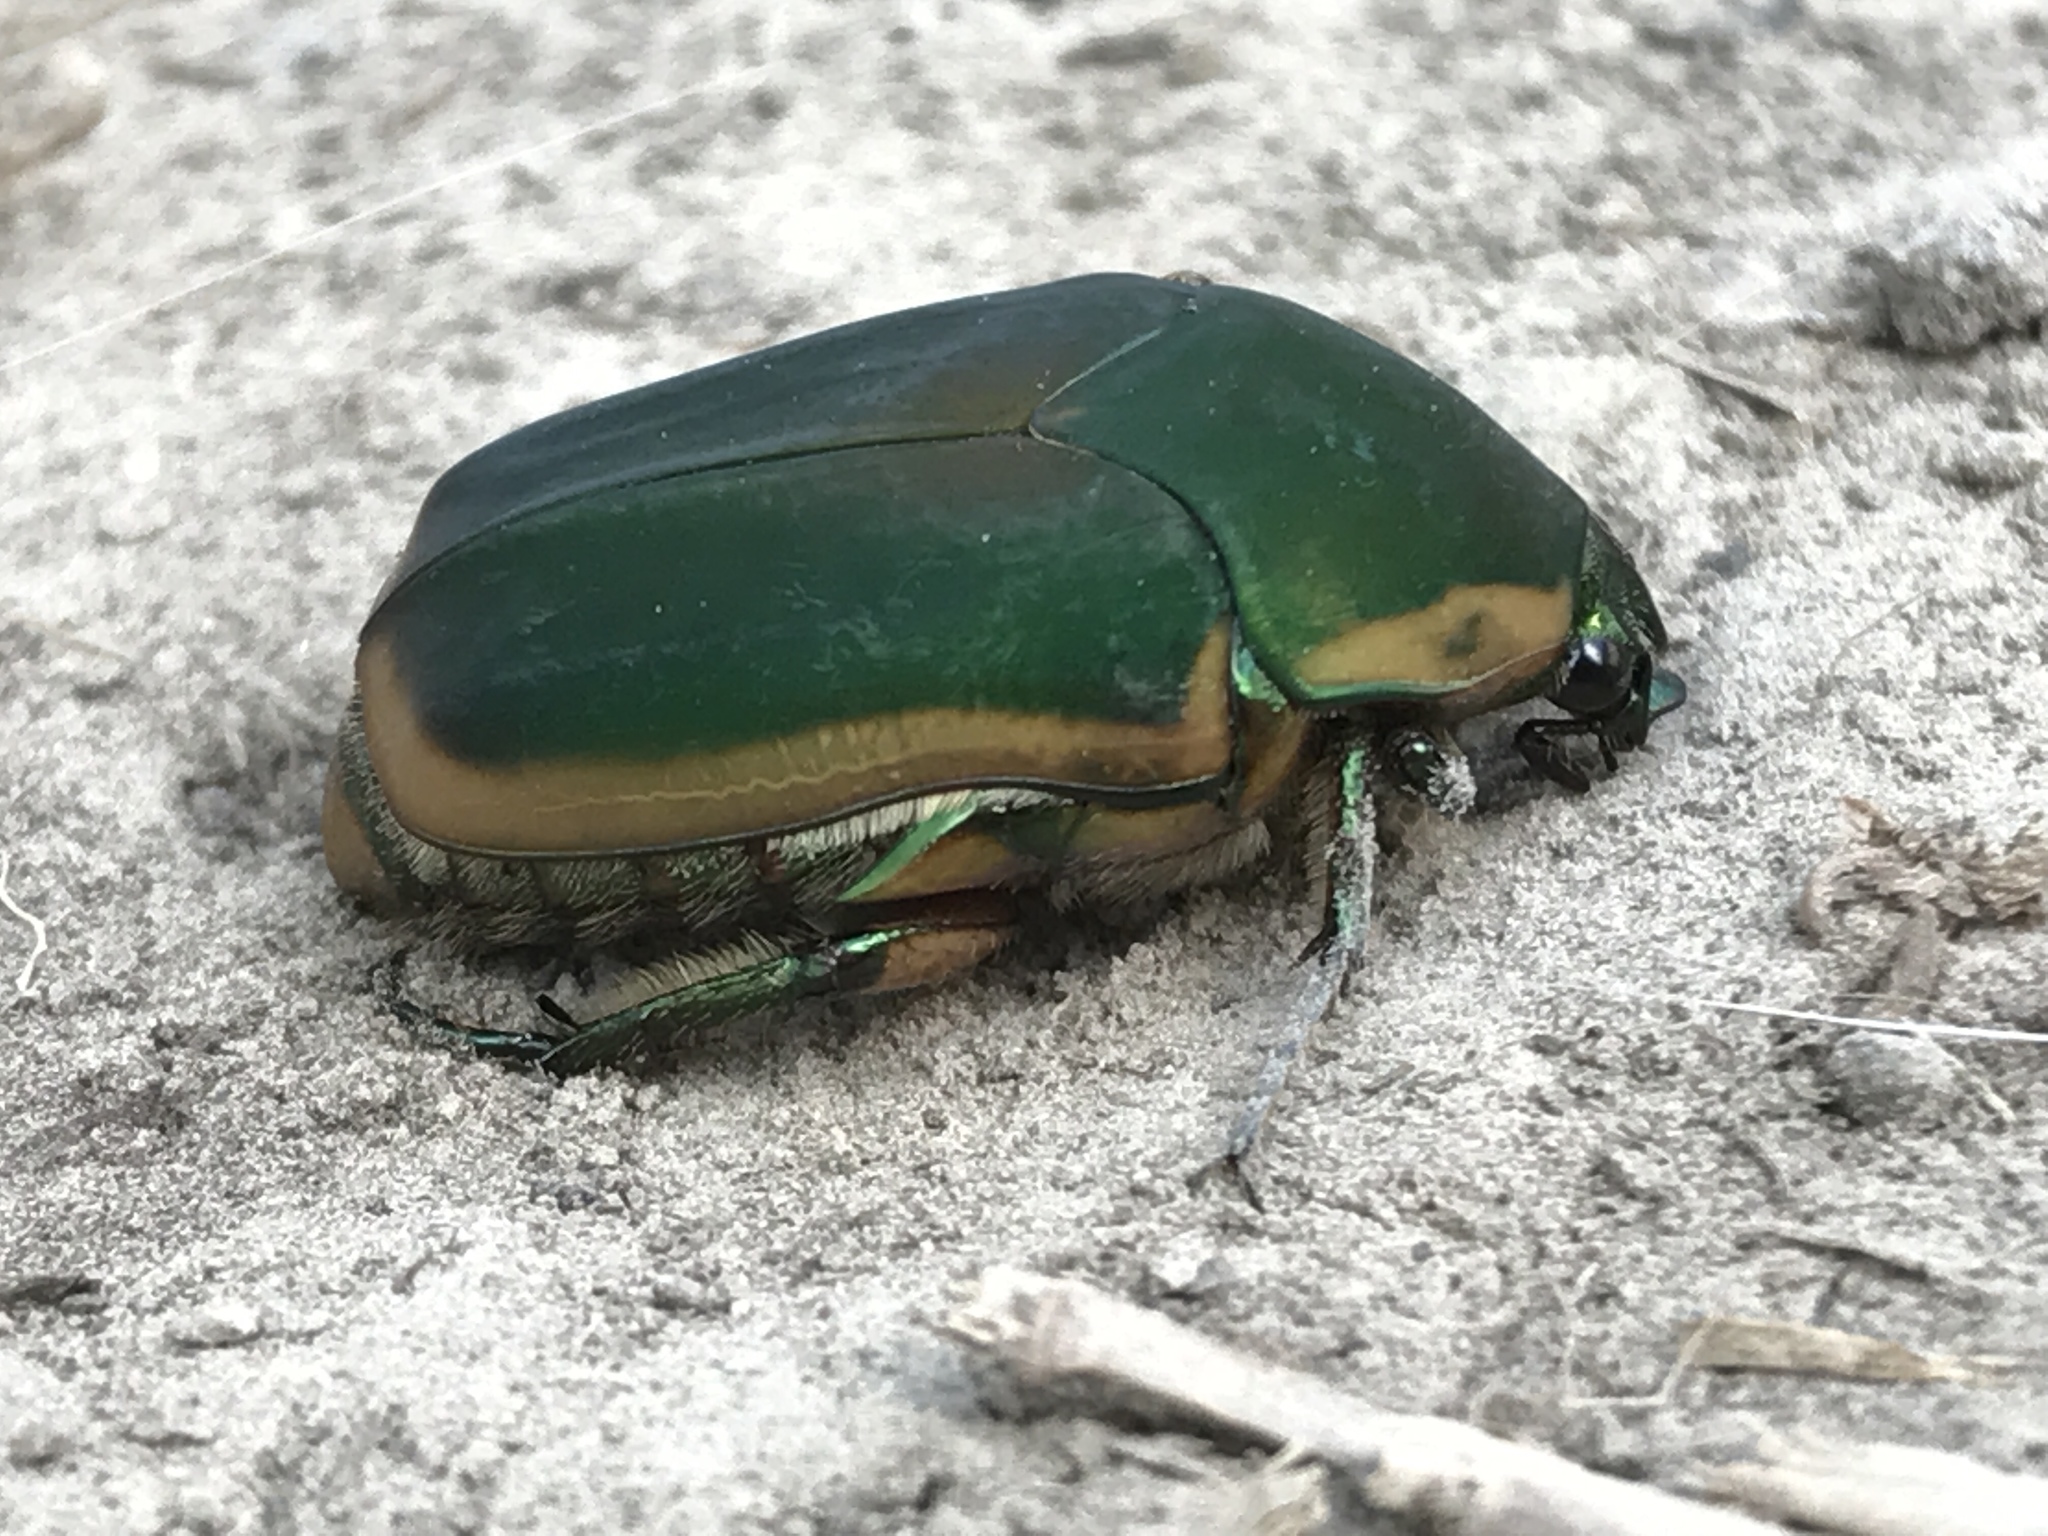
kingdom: Animalia
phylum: Arthropoda
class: Insecta
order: Coleoptera
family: Scarabaeidae
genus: Cotinis
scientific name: Cotinis nitida
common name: Common green june beetle
